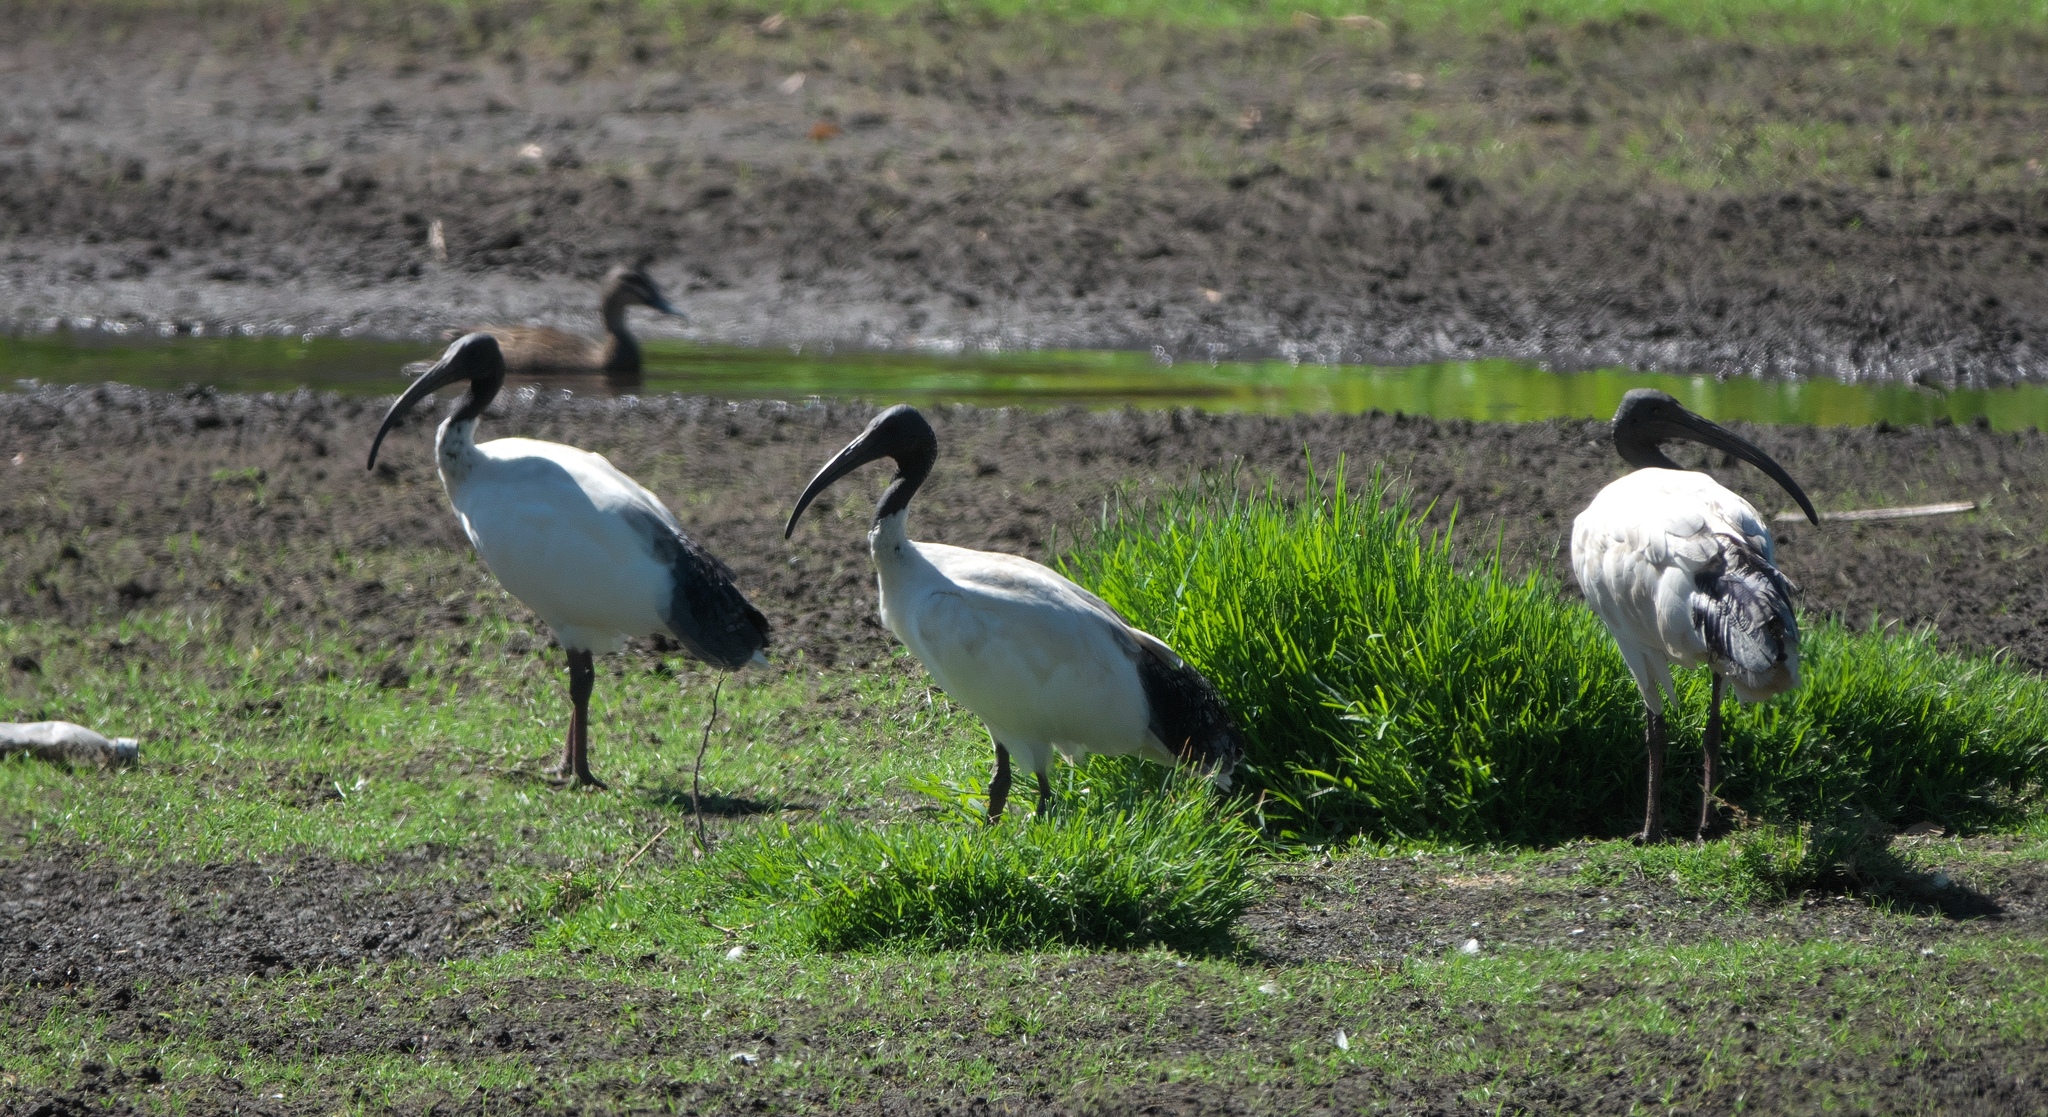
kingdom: Animalia
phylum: Chordata
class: Aves
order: Pelecaniformes
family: Threskiornithidae
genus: Threskiornis
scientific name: Threskiornis molucca
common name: Australian white ibis
